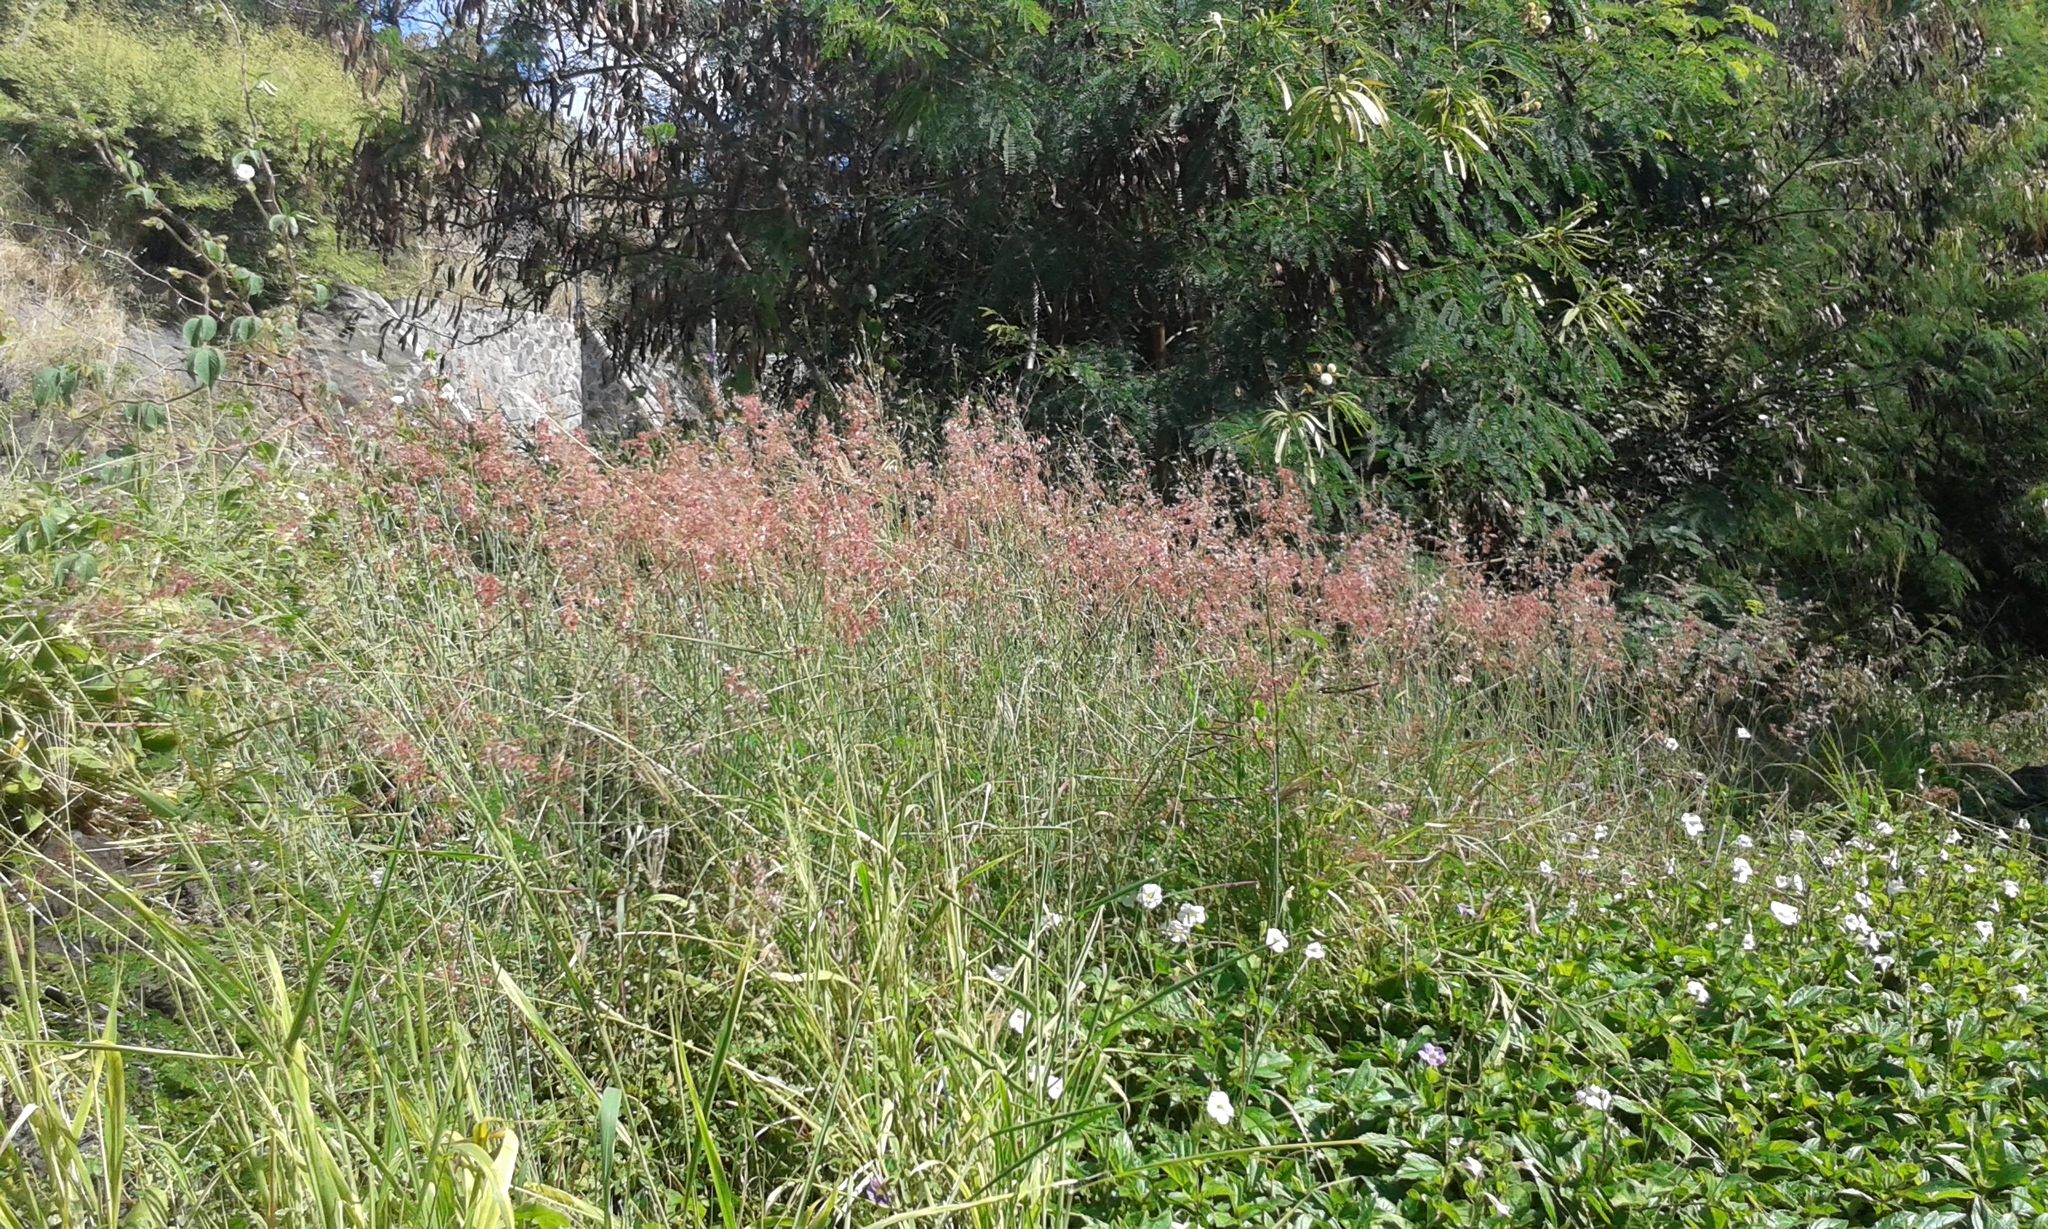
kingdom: Plantae
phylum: Tracheophyta
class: Liliopsida
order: Poales
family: Poaceae
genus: Melinis
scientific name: Melinis repens
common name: Rose natal grass
